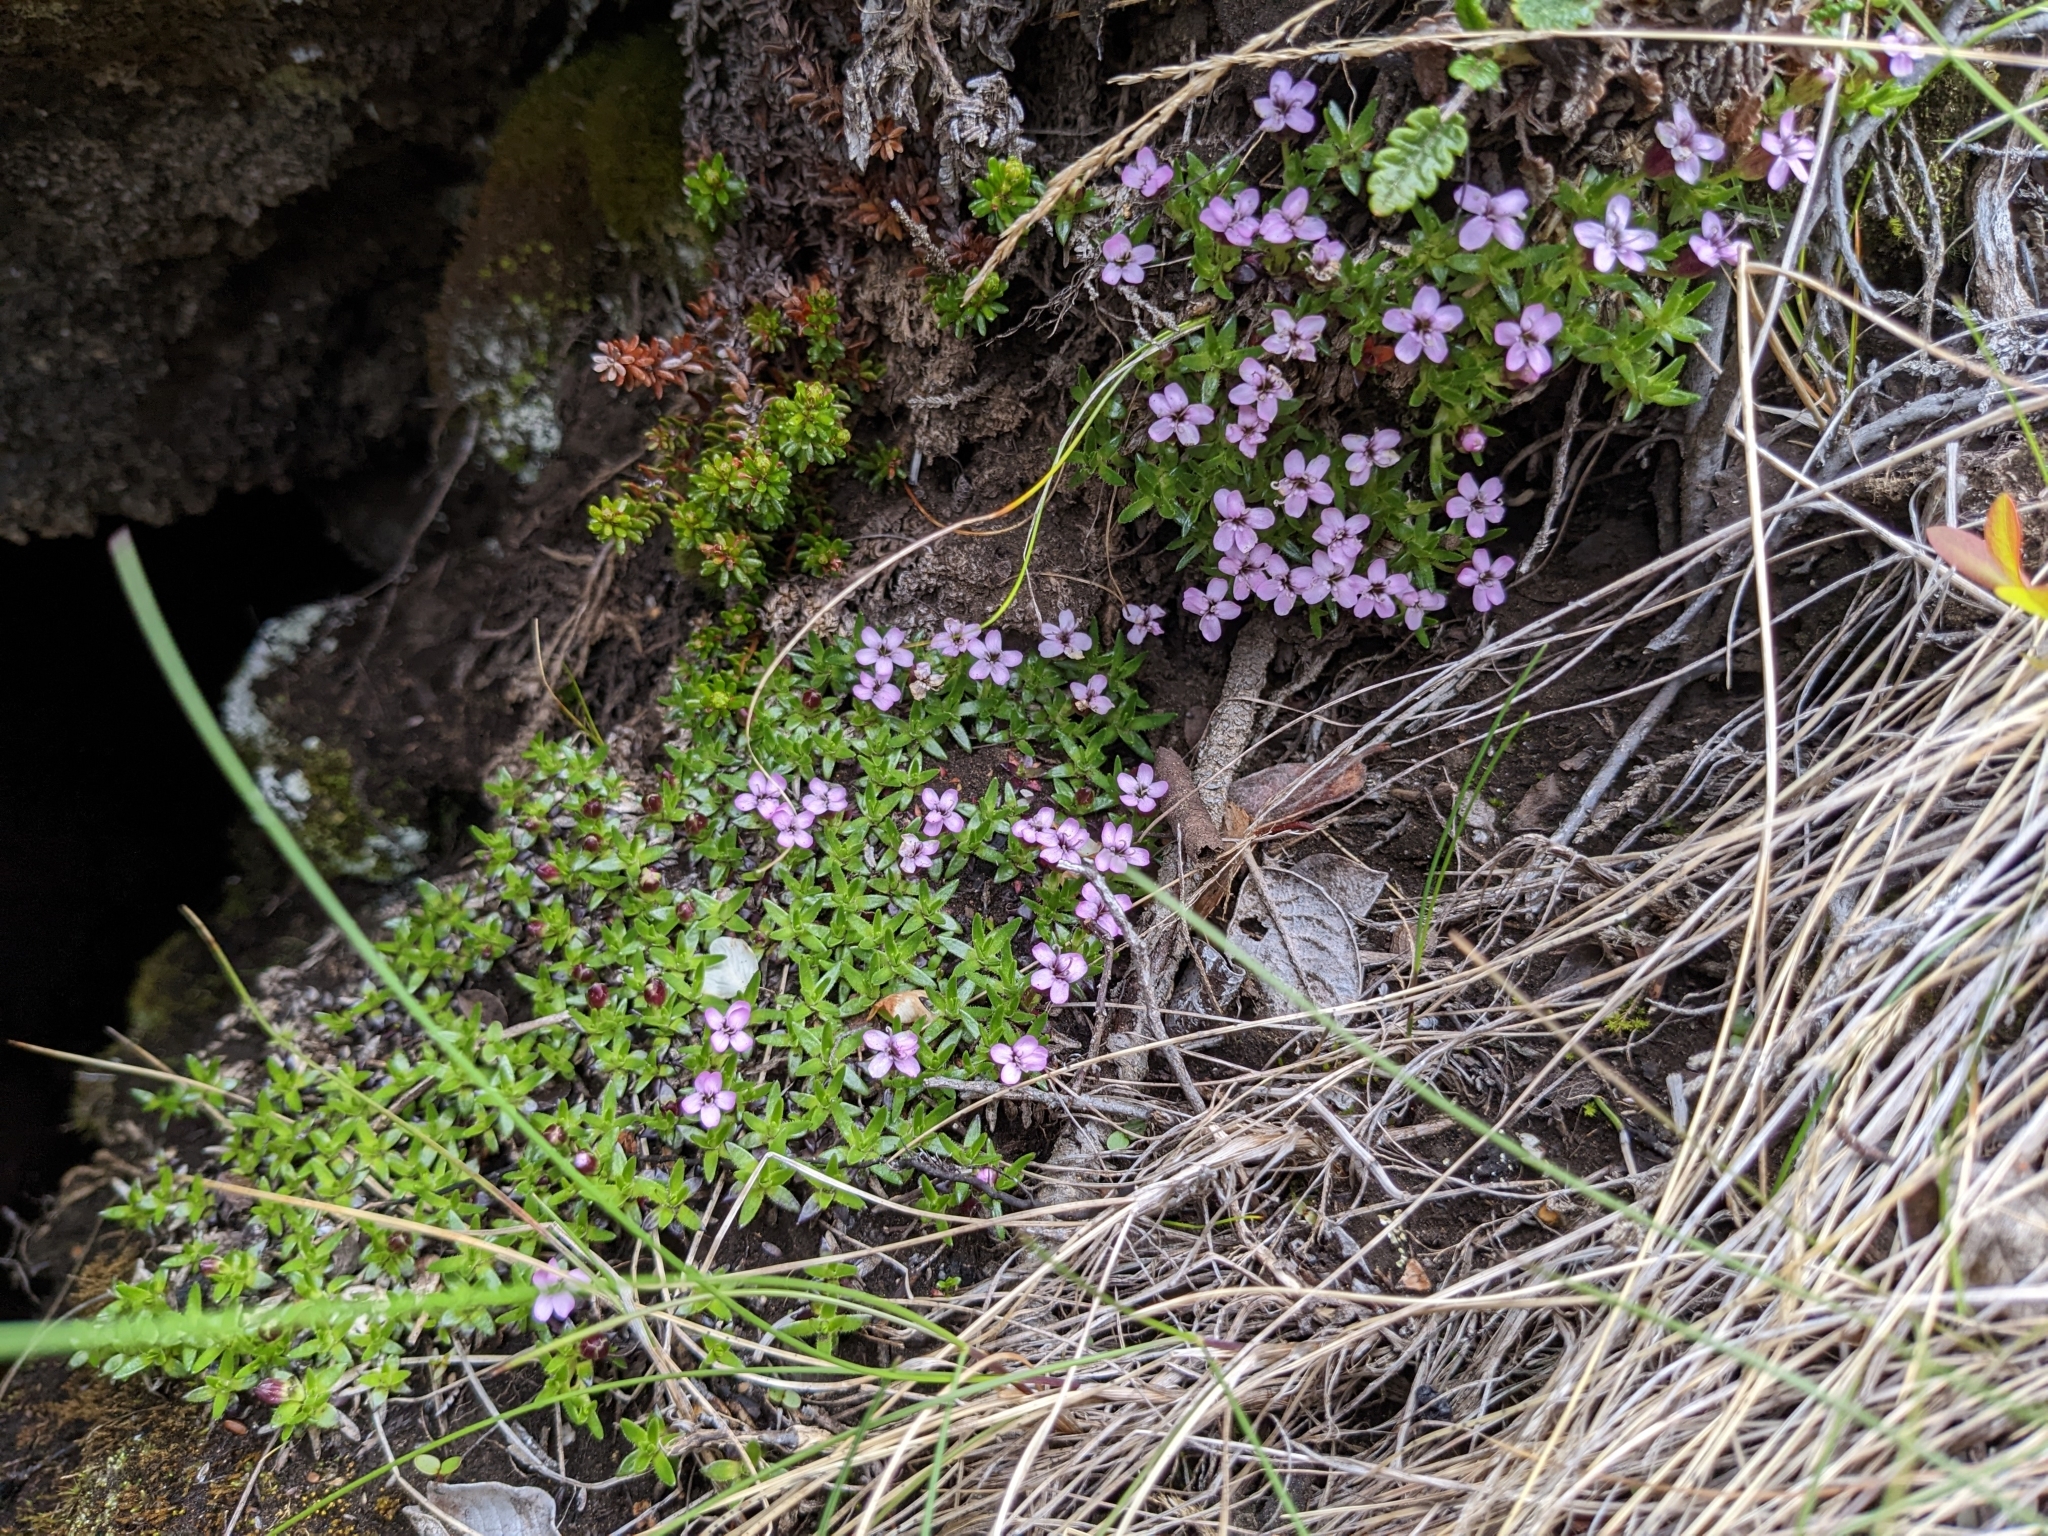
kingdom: Plantae
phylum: Tracheophyta
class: Magnoliopsida
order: Caryophyllales
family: Caryophyllaceae
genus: Silene
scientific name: Silene acaulis
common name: Moss campion
